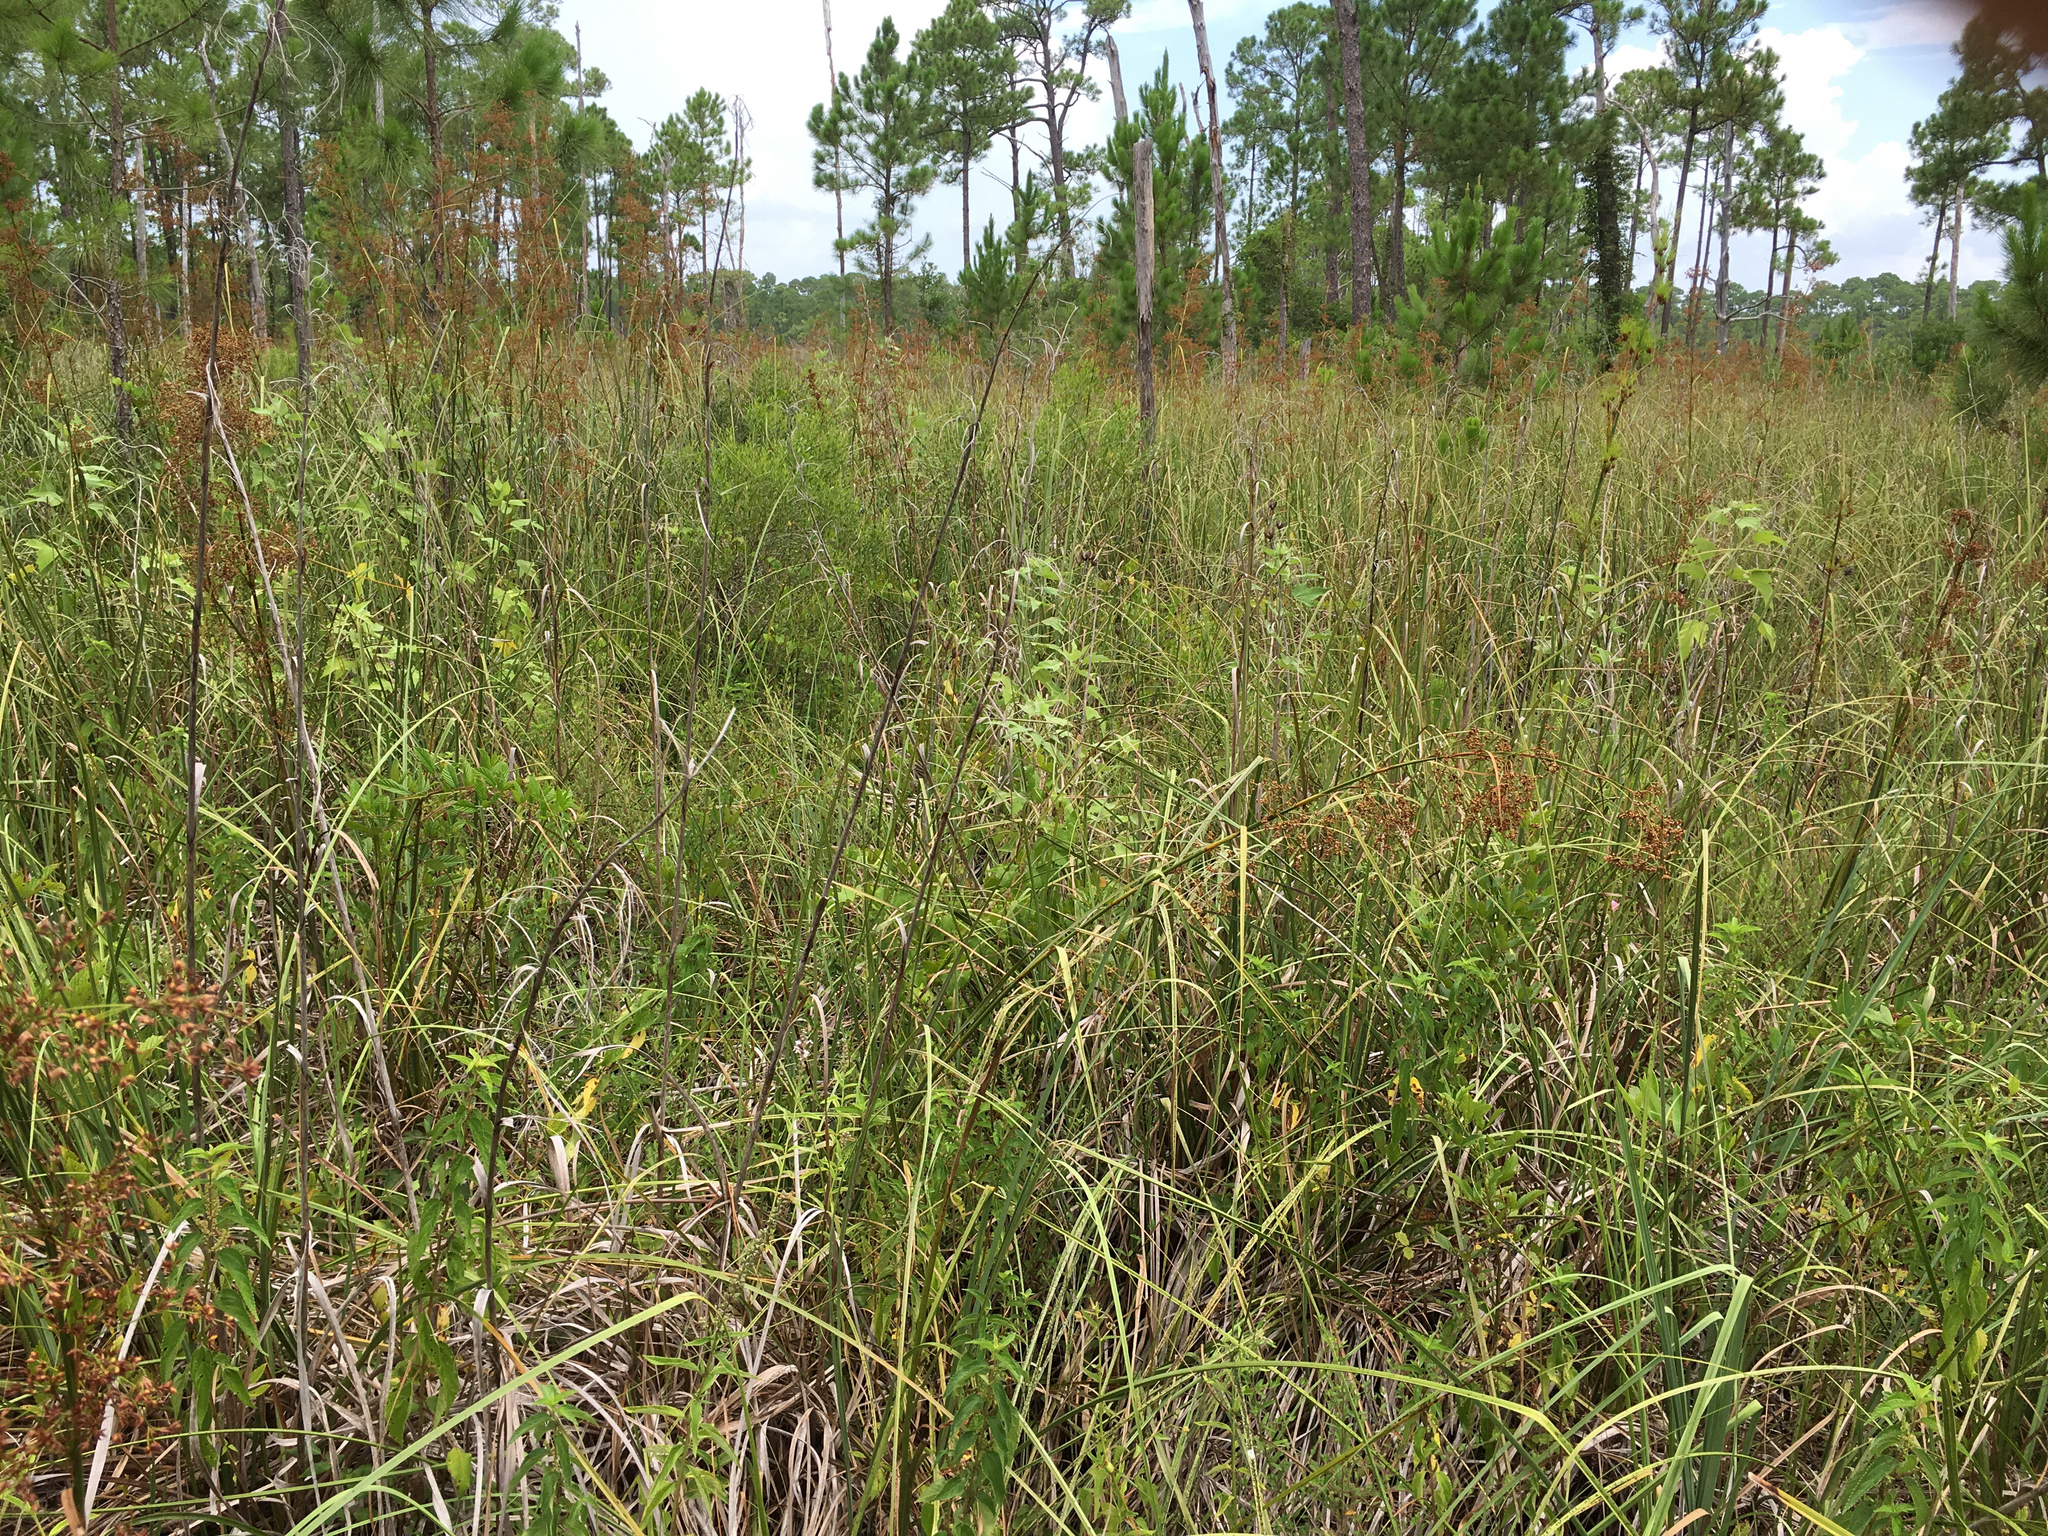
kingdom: Plantae
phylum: Tracheophyta
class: Liliopsida
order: Poales
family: Cyperaceae
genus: Cladium
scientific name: Cladium mariscus
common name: Great fen-sedge
